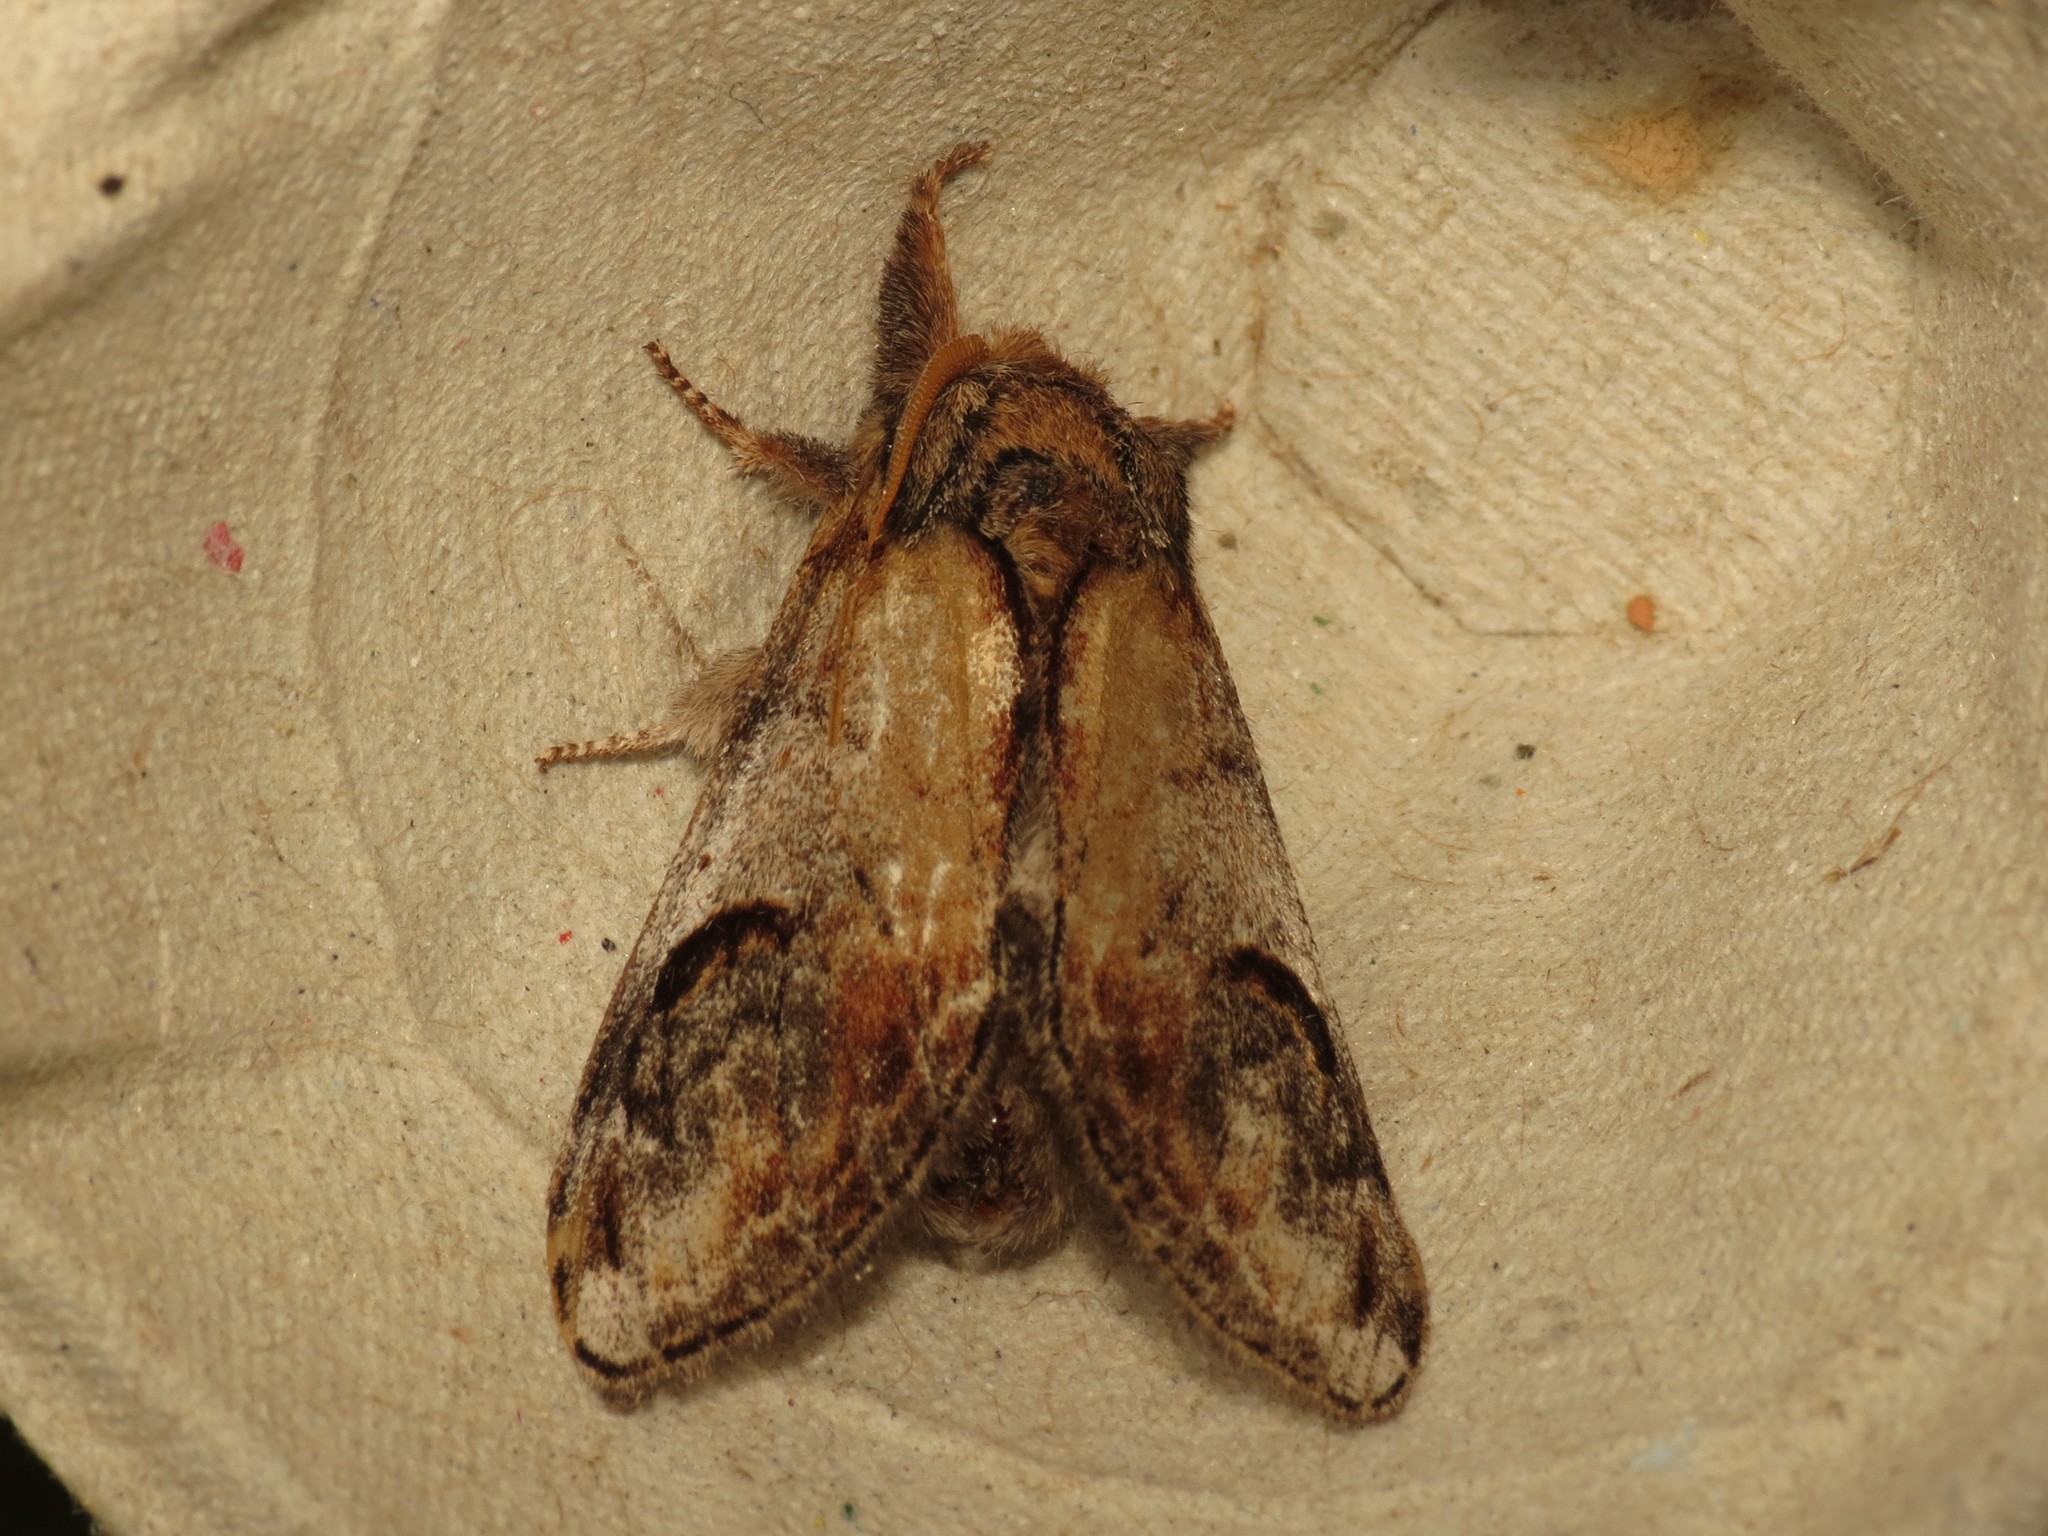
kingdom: Animalia
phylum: Arthropoda
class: Insecta
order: Lepidoptera
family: Notodontidae
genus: Notodonta
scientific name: Notodonta ziczac
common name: Pebble prominent
